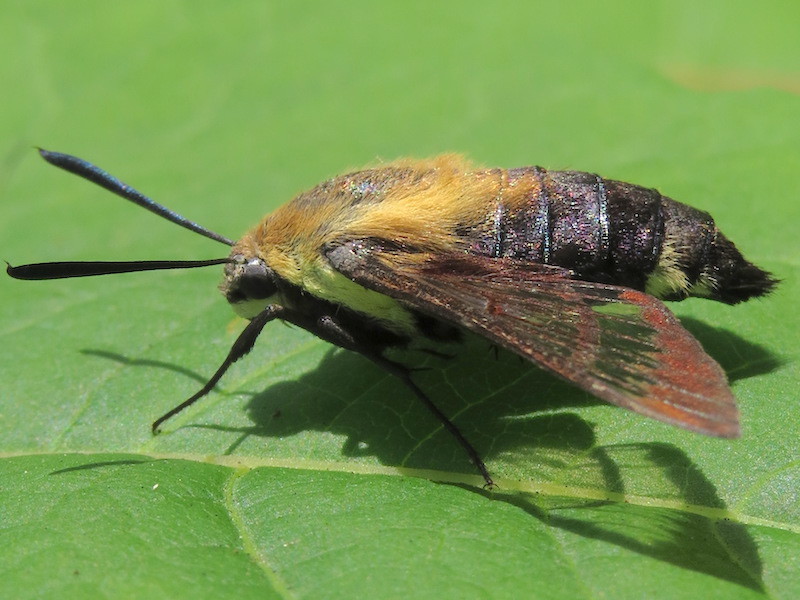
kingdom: Animalia
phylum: Arthropoda
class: Insecta
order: Lepidoptera
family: Sphingidae
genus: Hemaris
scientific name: Hemaris diffinis
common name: Bumblebee moth
